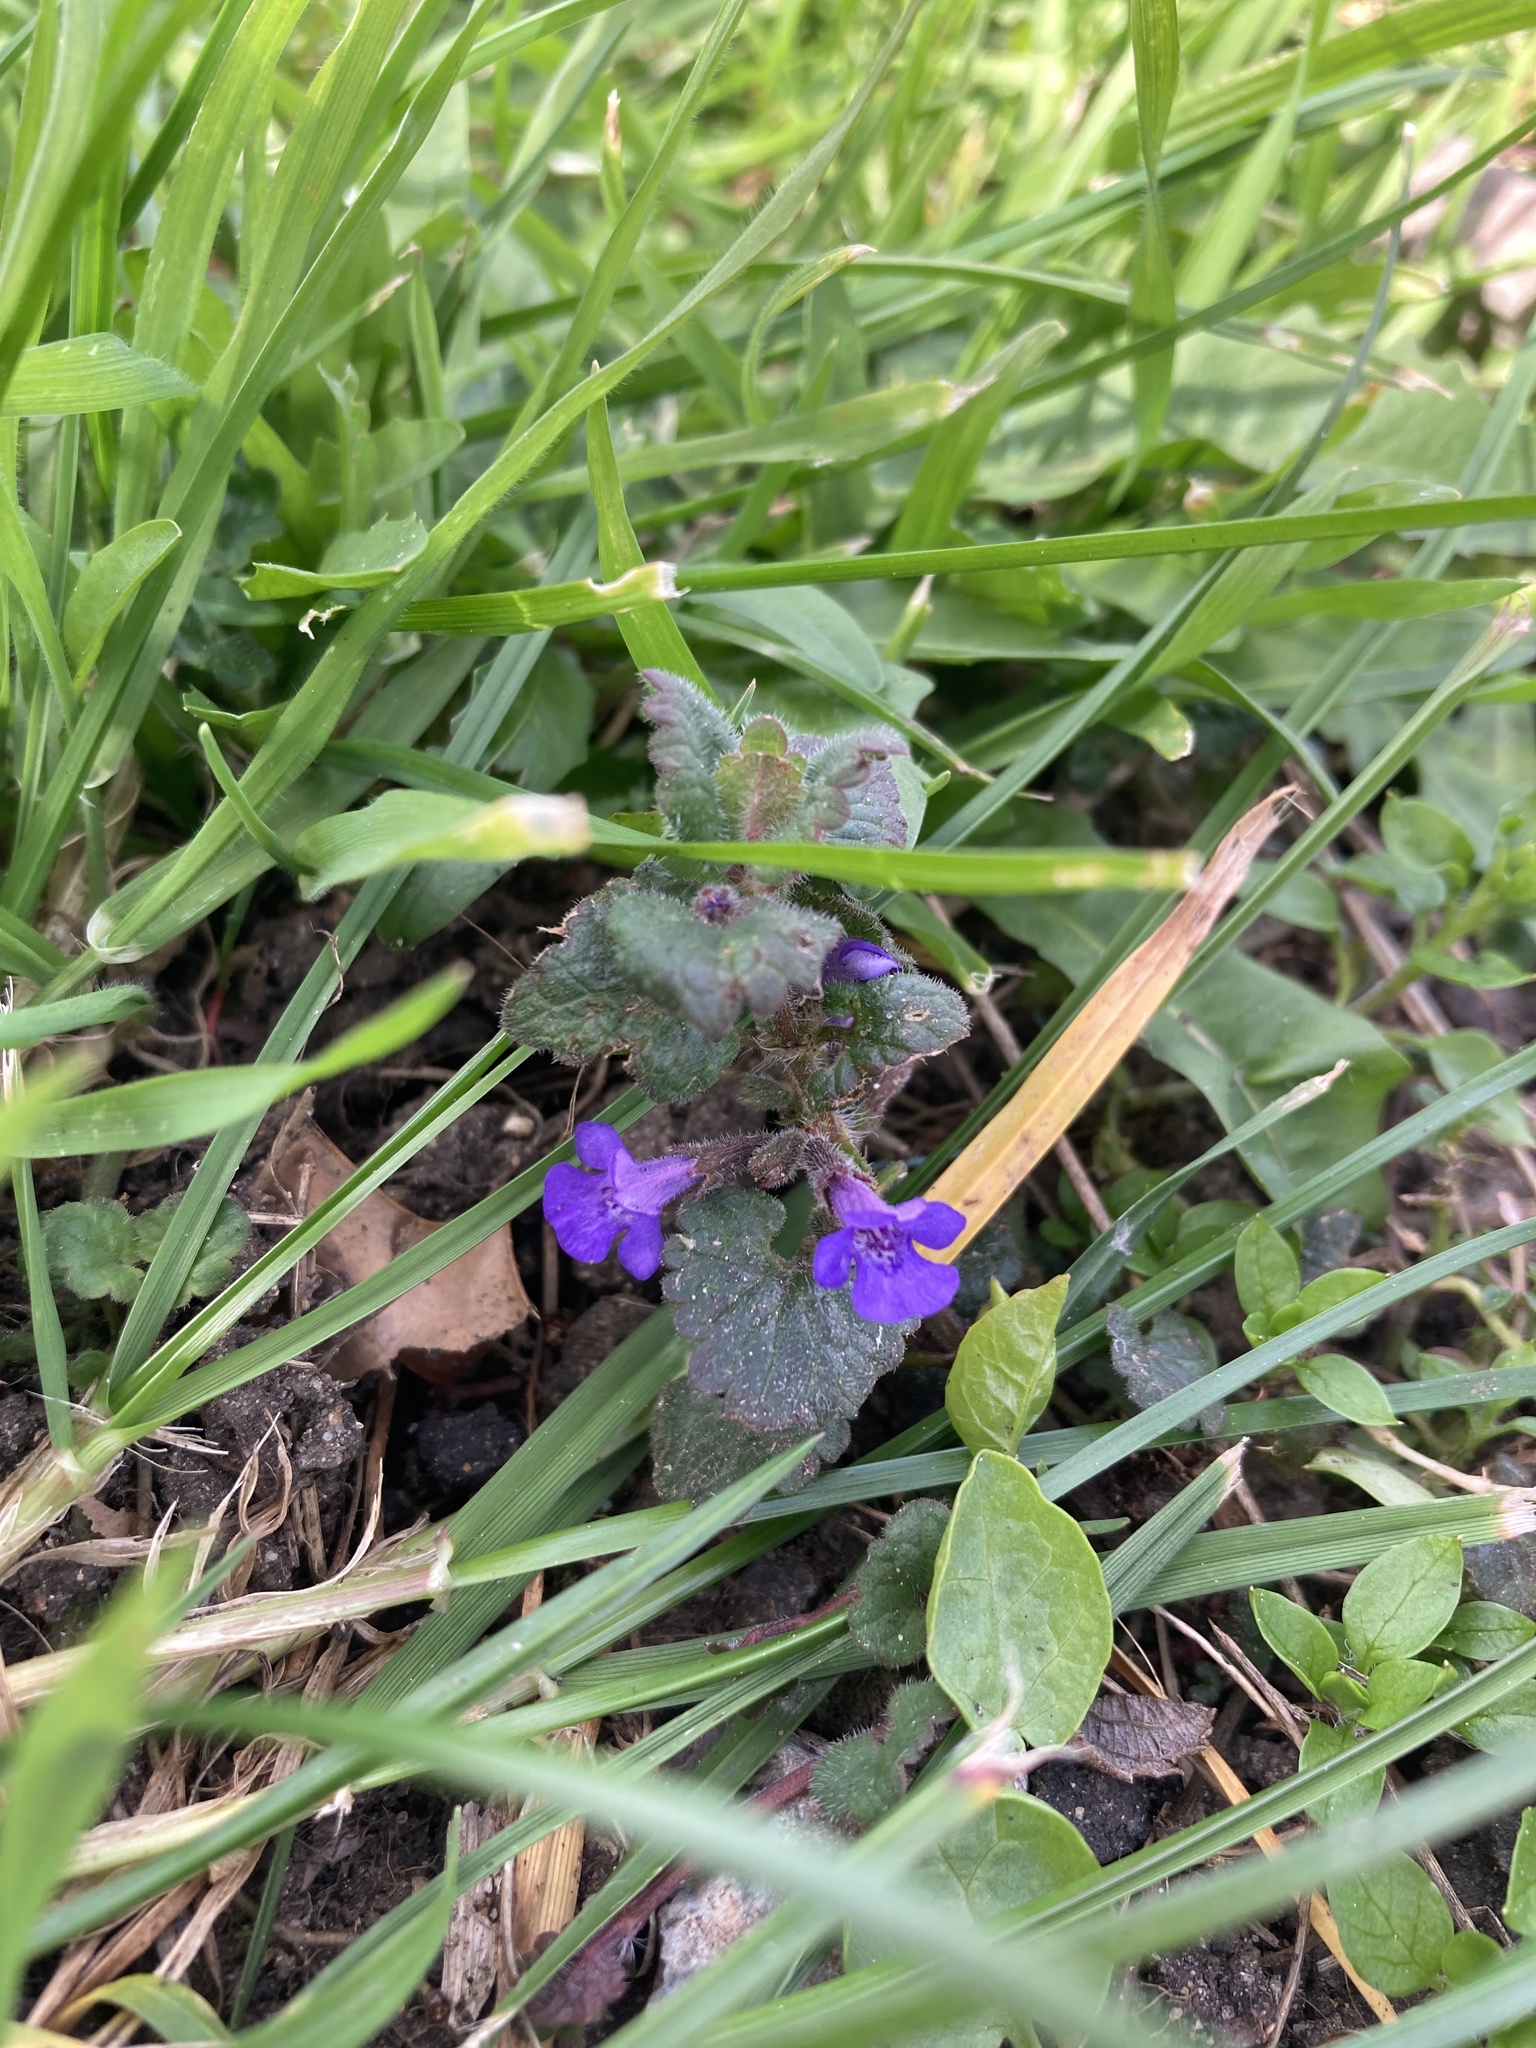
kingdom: Plantae
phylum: Tracheophyta
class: Magnoliopsida
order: Lamiales
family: Lamiaceae
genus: Glechoma
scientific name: Glechoma hederacea
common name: Ground ivy
